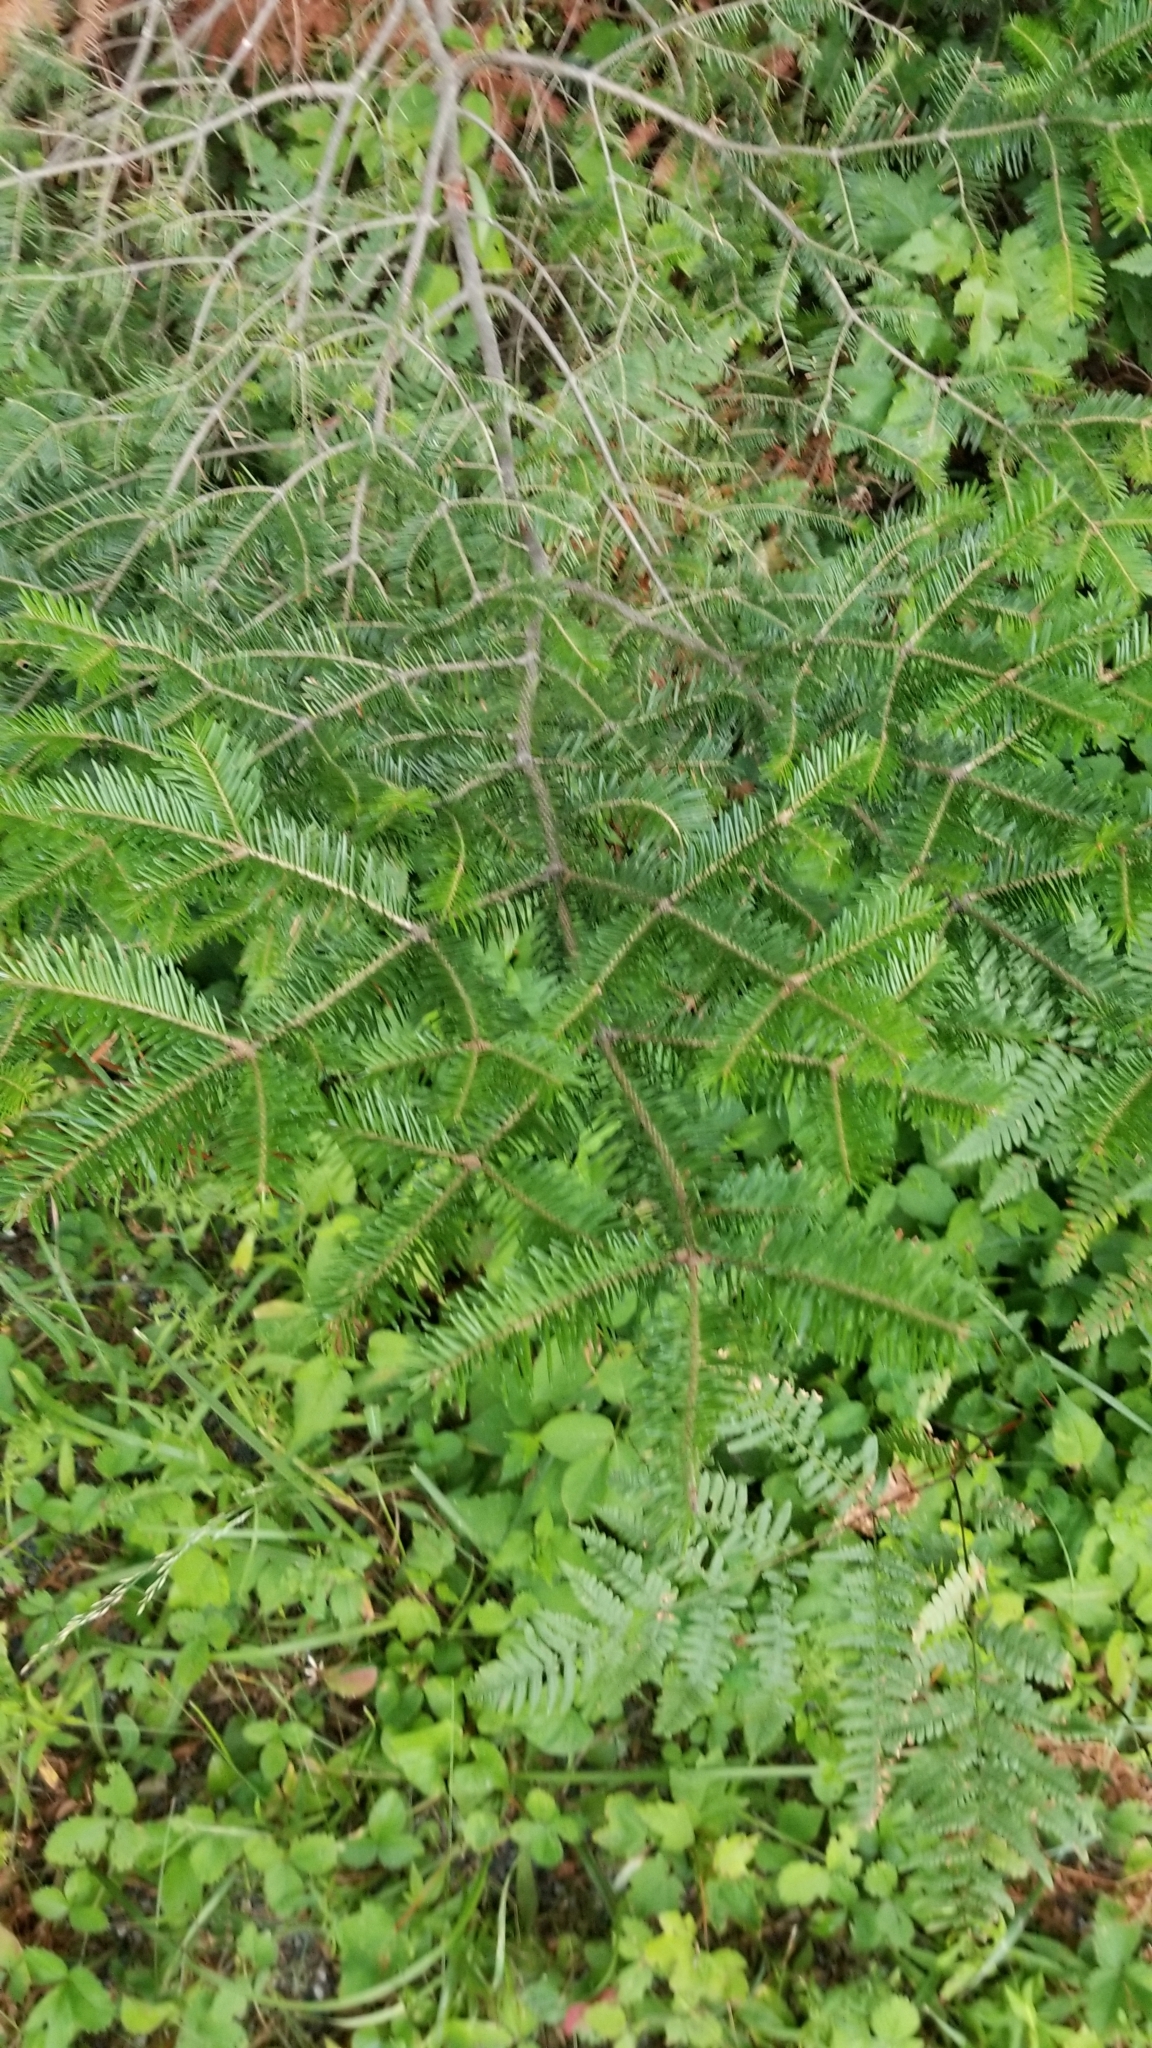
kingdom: Plantae
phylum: Tracheophyta
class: Pinopsida
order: Pinales
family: Pinaceae
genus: Abies
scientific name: Abies balsamea
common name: Balsam fir
